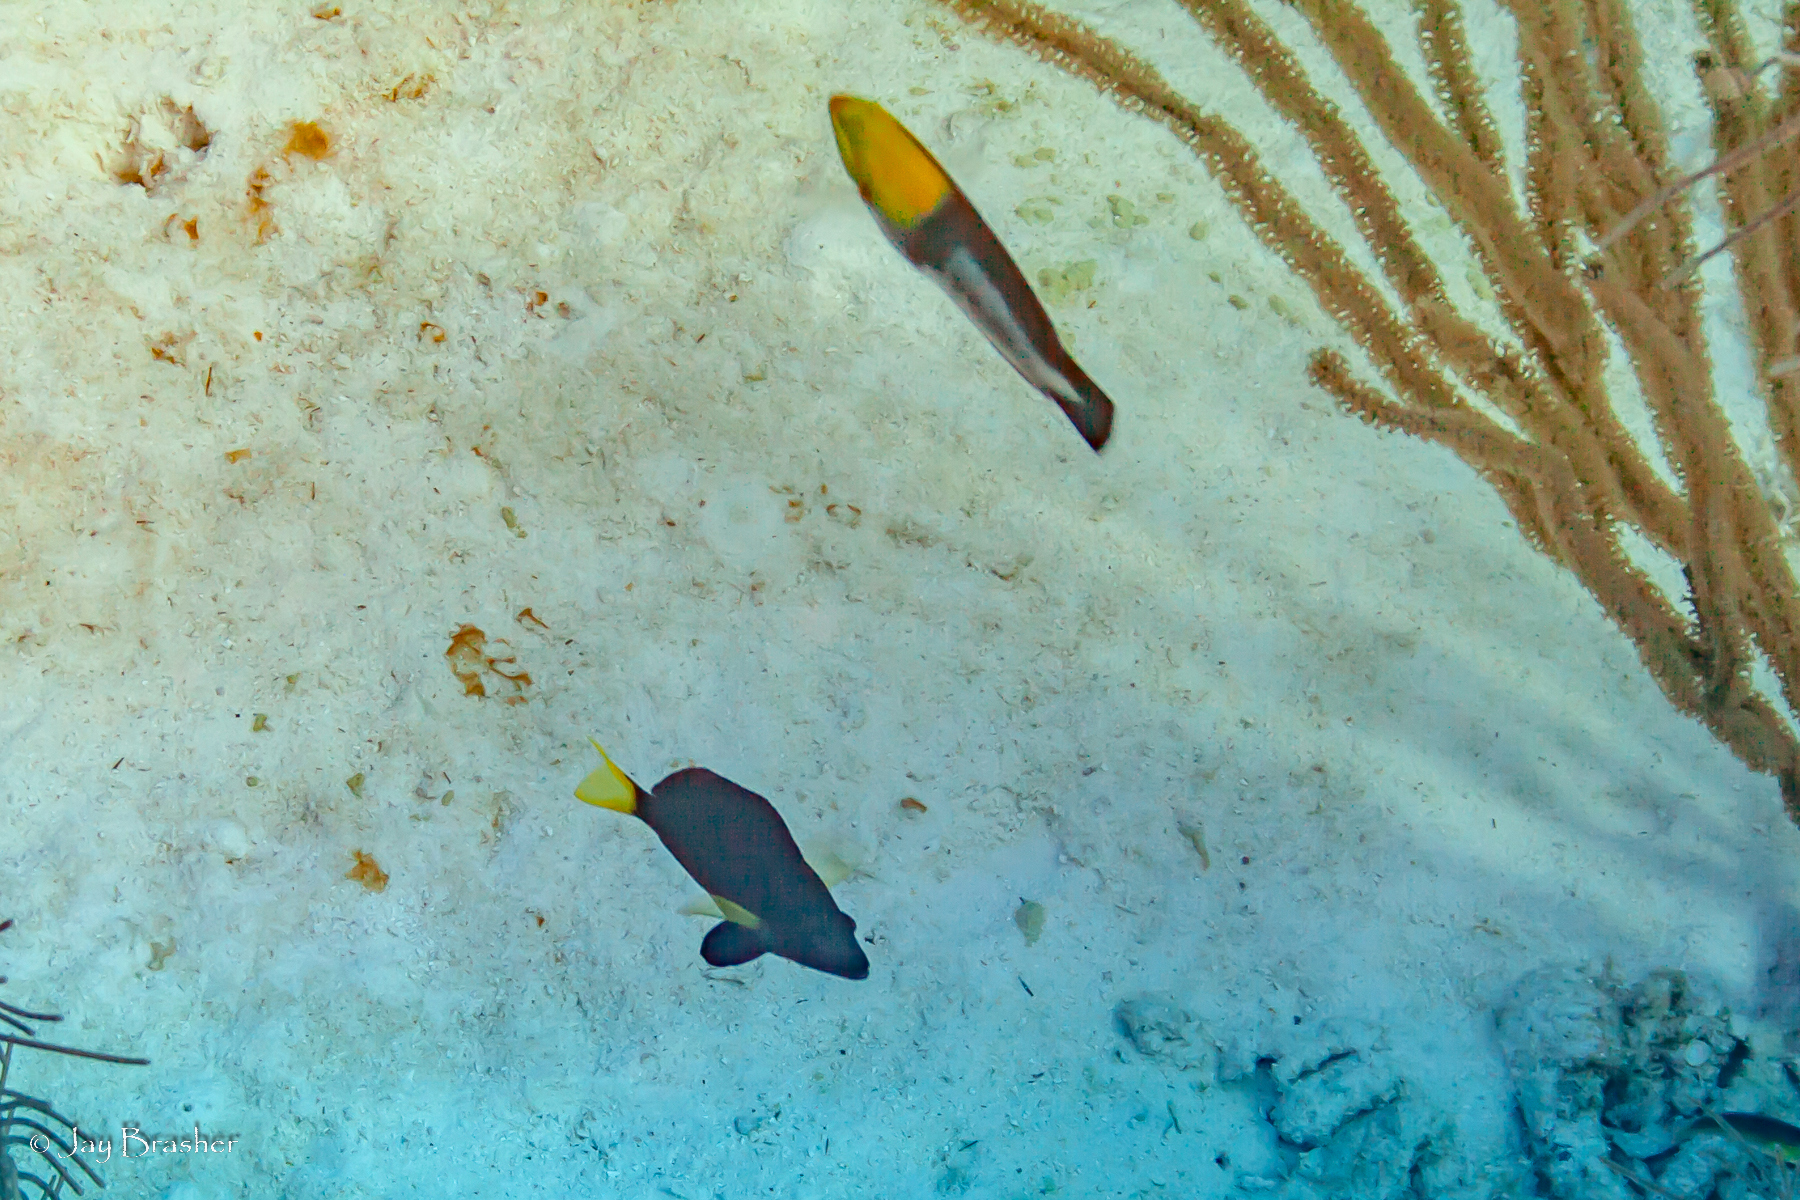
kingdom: Animalia
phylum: Chordata
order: Perciformes
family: Serranidae
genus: Hypoplectrus
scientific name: Hypoplectrus chlorurus
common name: Yellowtail hamlet
